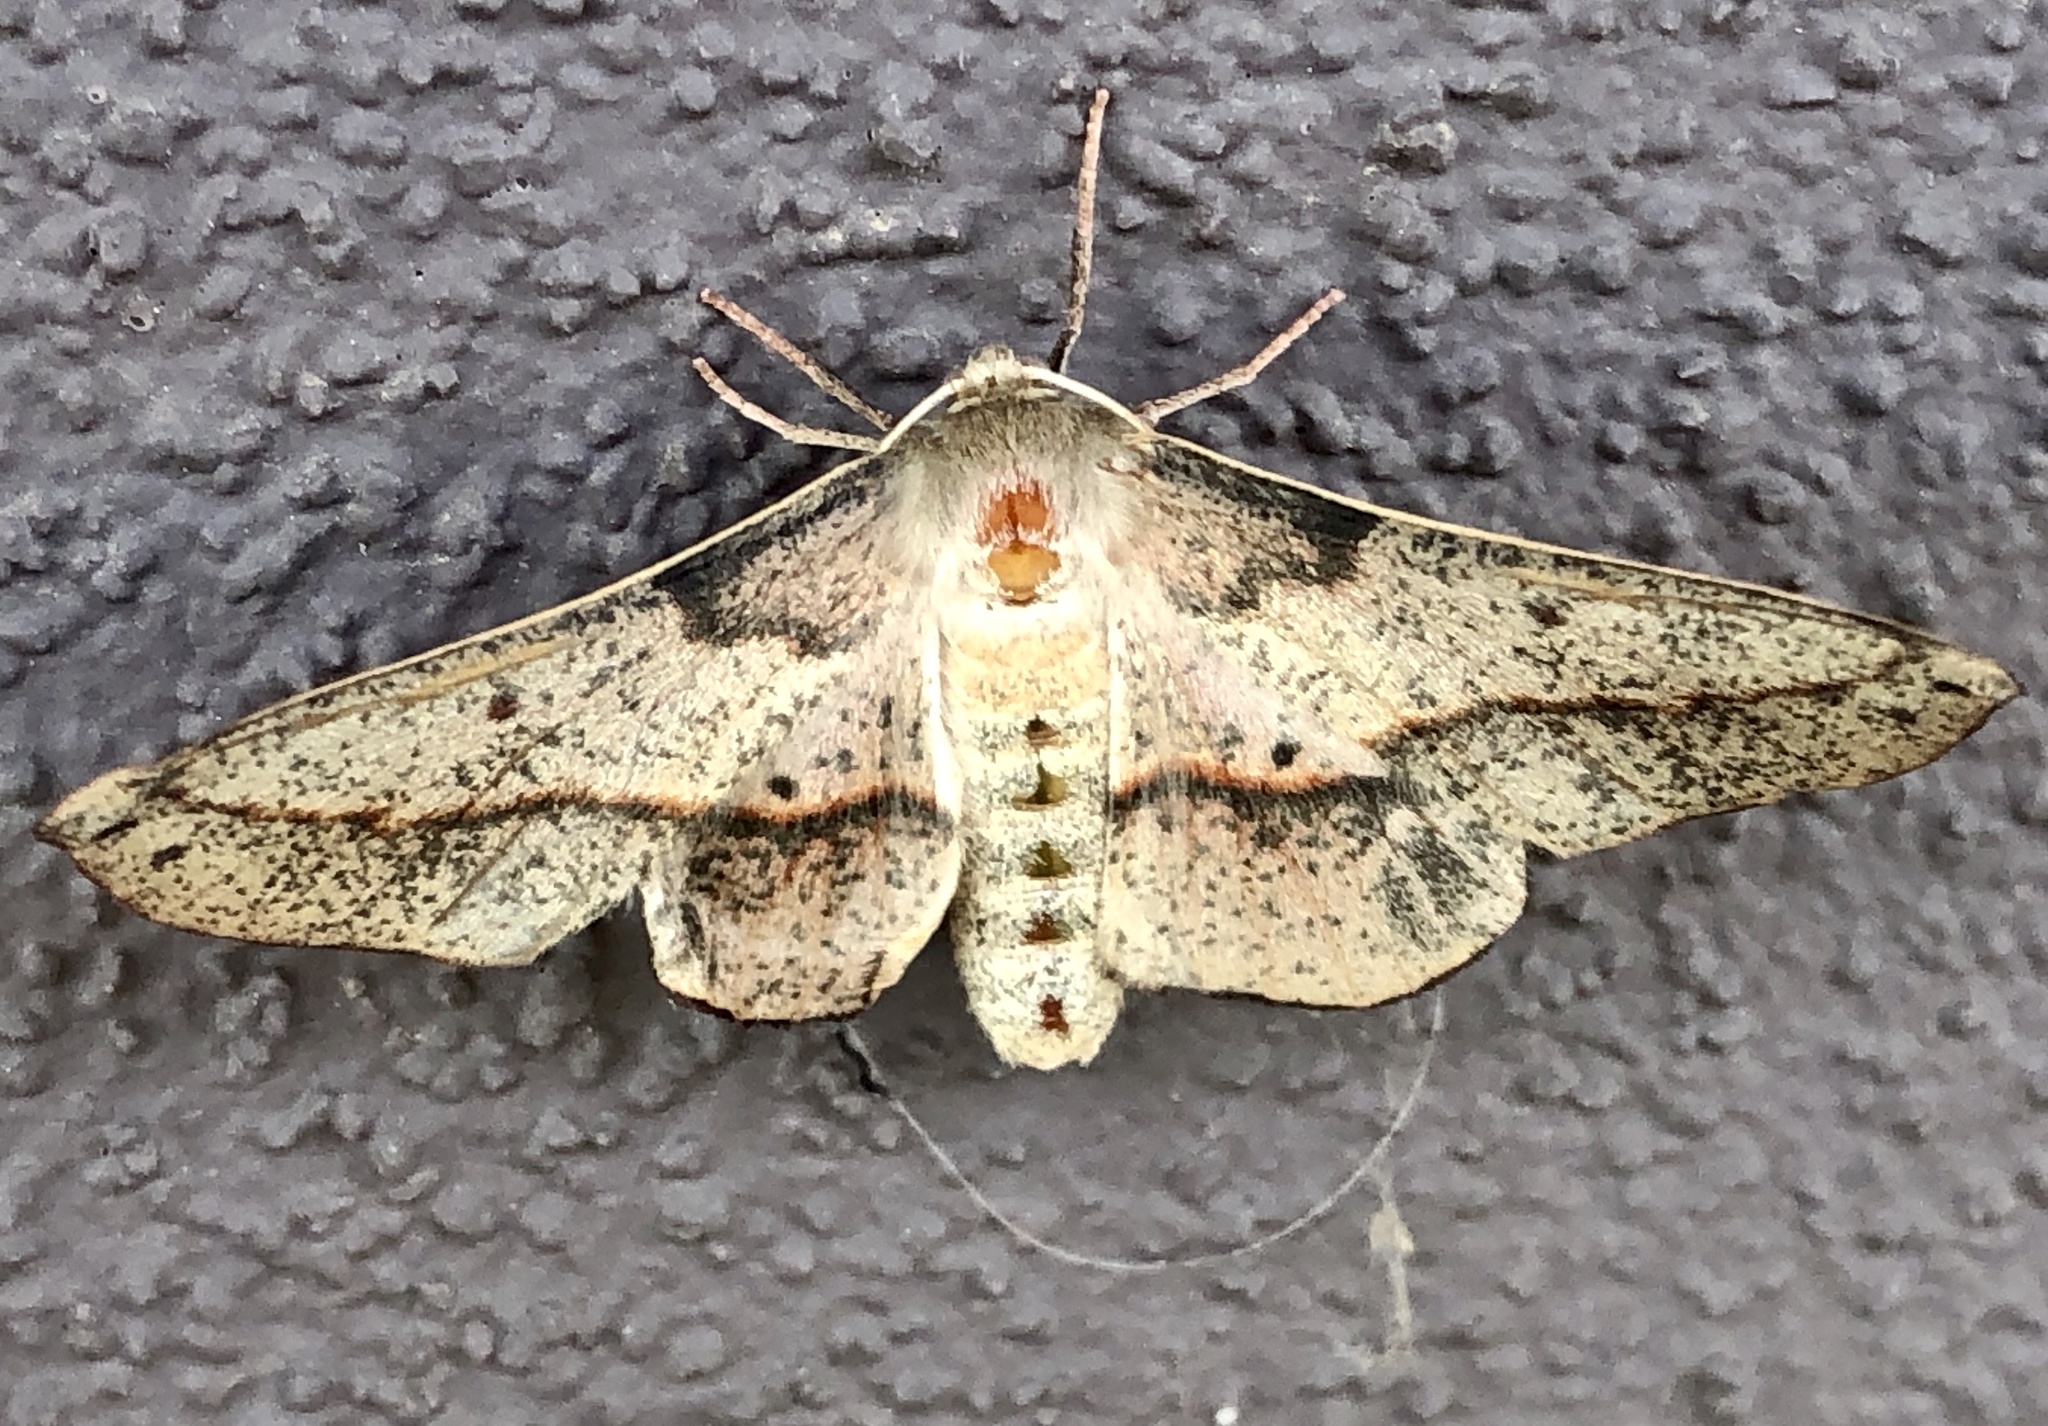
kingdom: Animalia
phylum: Arthropoda
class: Insecta
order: Lepidoptera
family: Geometridae
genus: Antictenia
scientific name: Antictenia punctunculus
